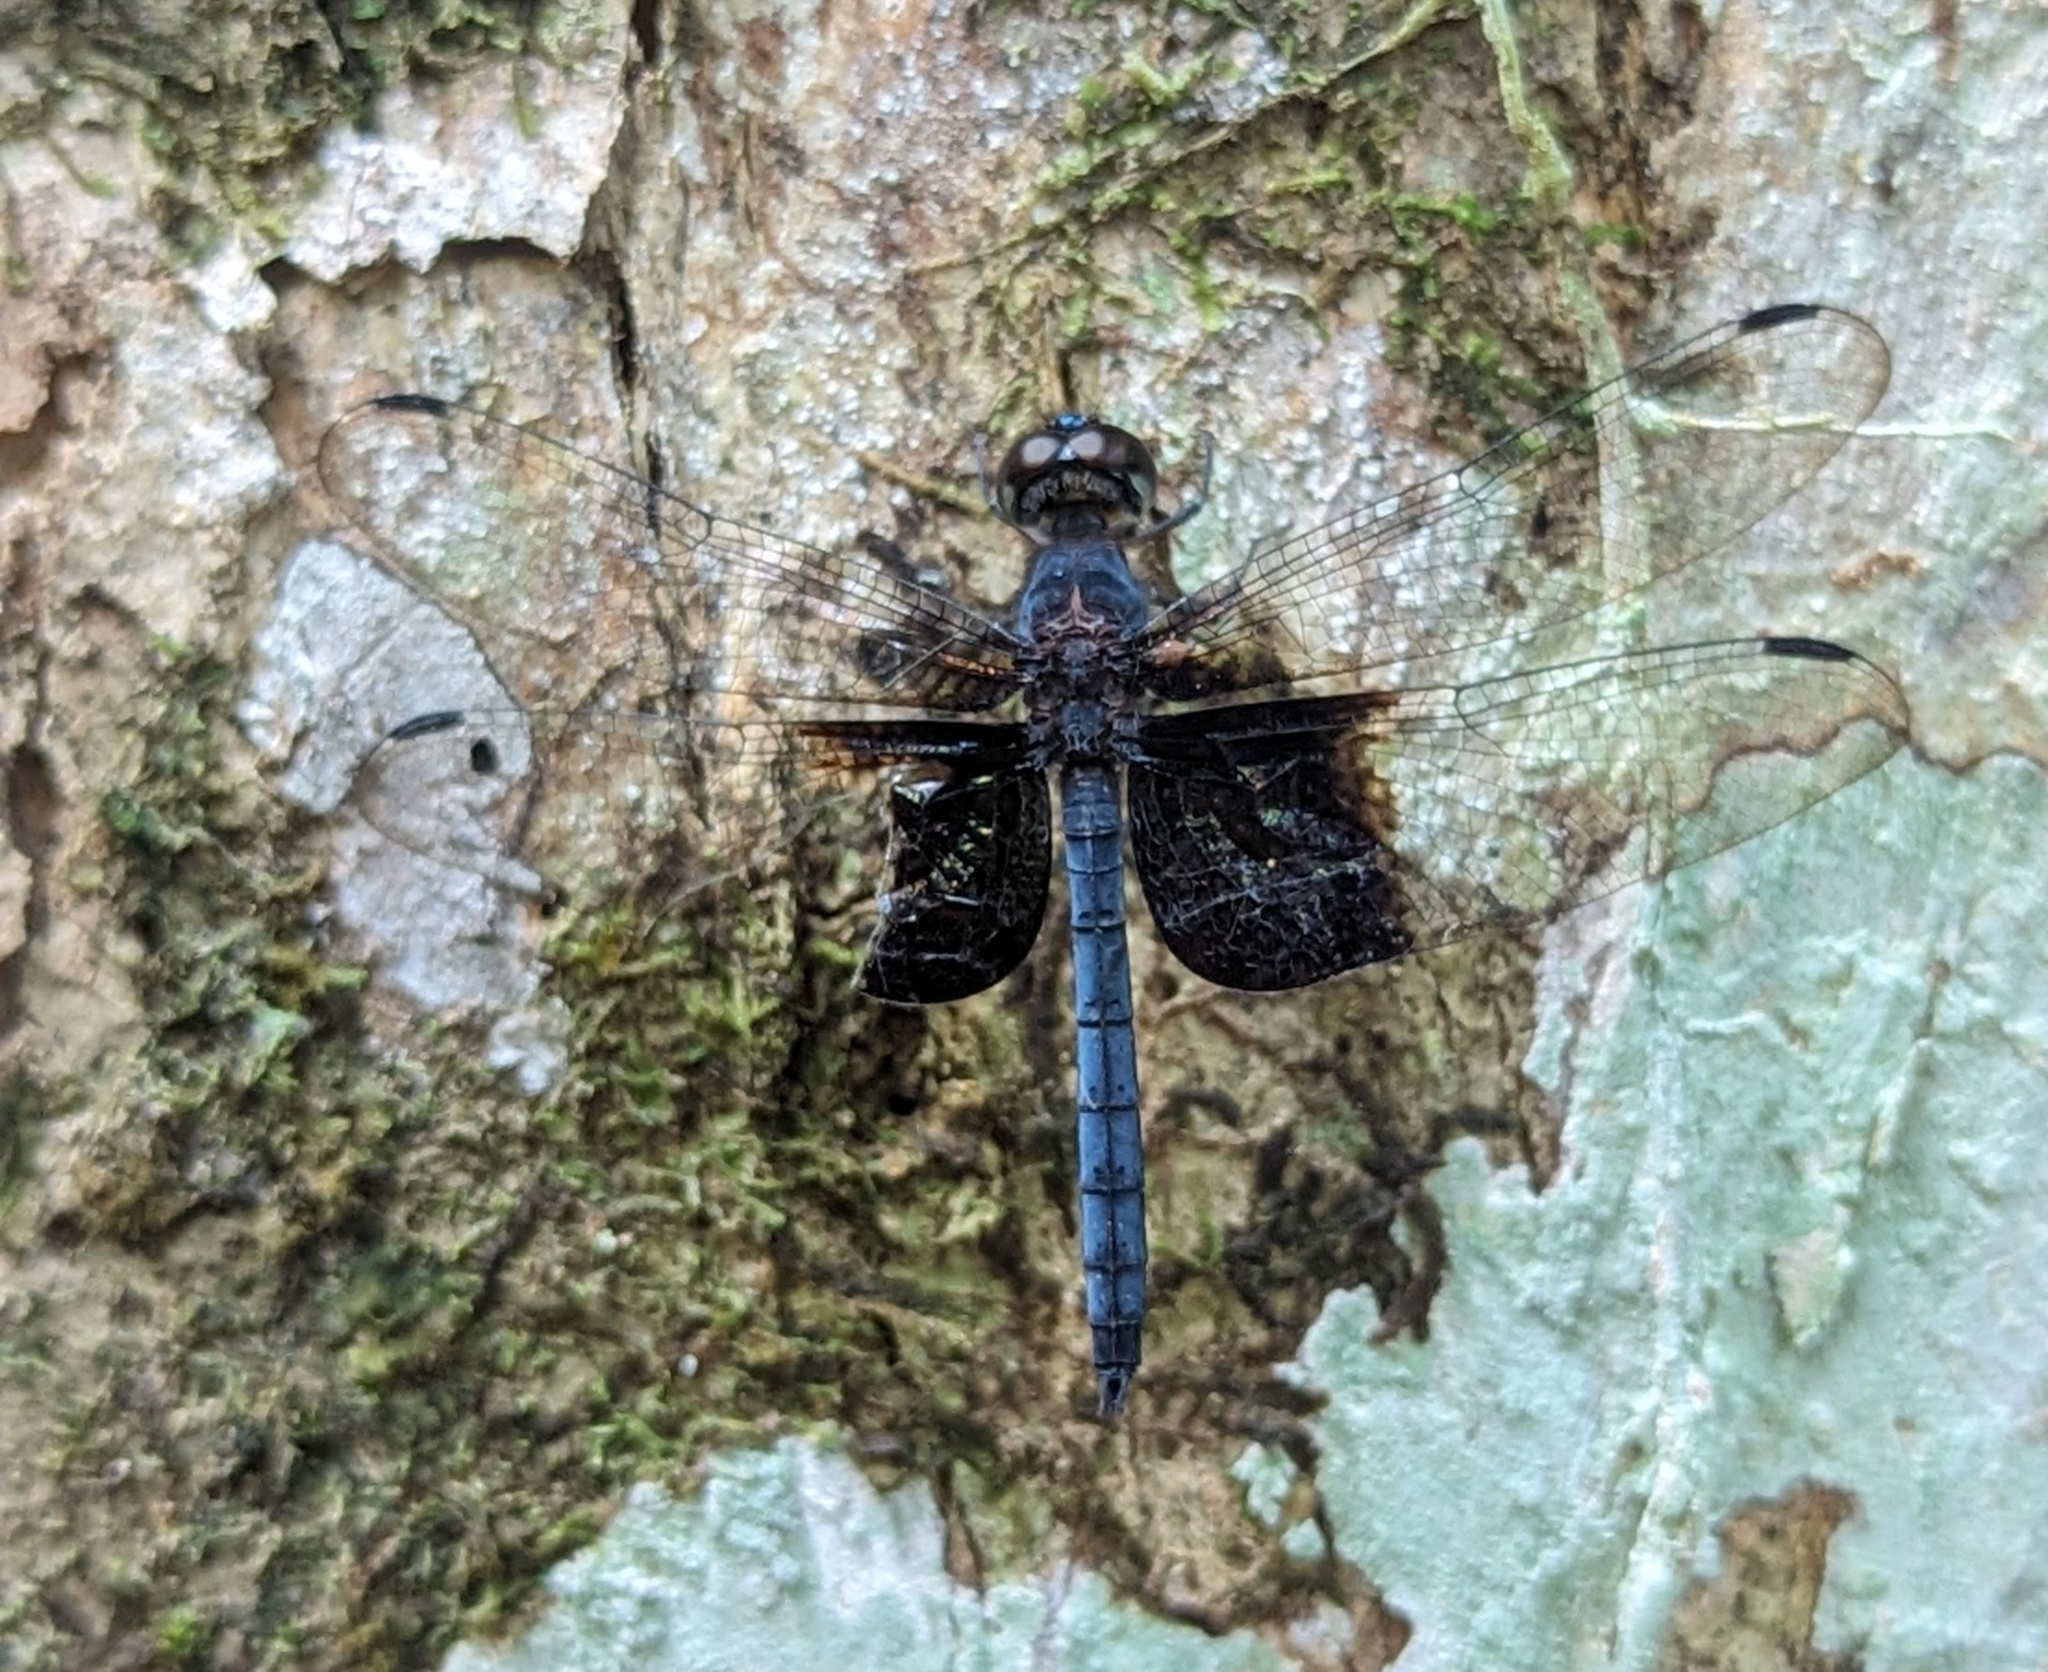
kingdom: Animalia
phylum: Arthropoda
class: Insecta
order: Odonata
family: Libellulidae
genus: Tyriobapta
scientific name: Tyriobapta torrida
